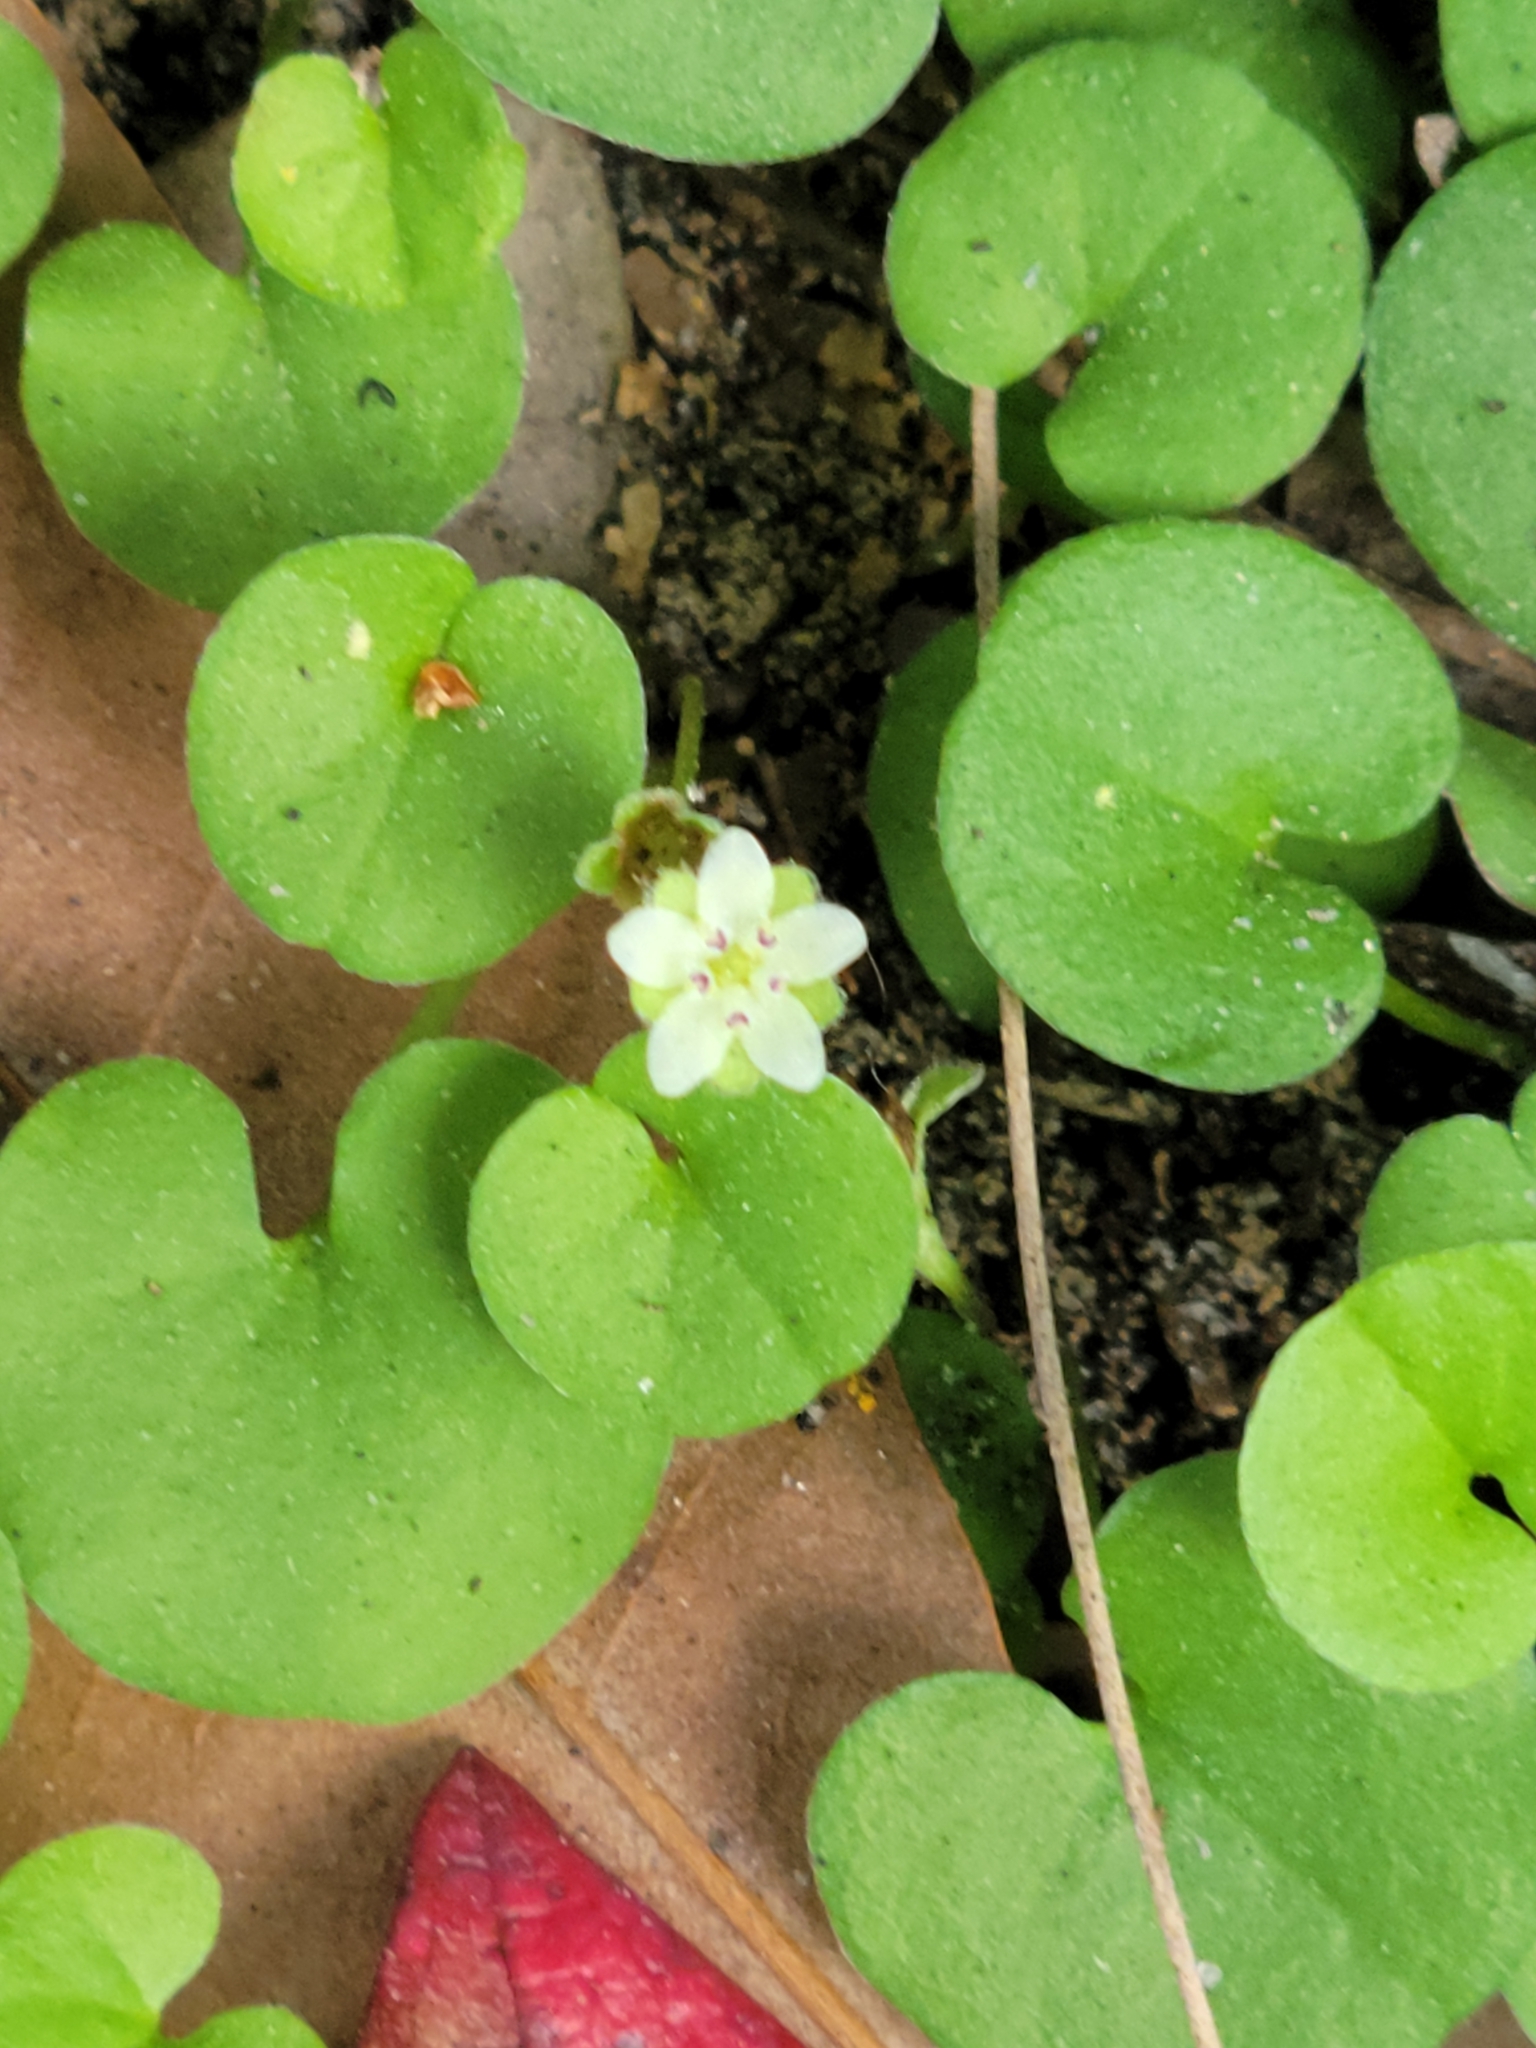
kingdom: Plantae
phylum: Tracheophyta
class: Magnoliopsida
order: Solanales
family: Convolvulaceae
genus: Dichondra
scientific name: Dichondra carolinensis
